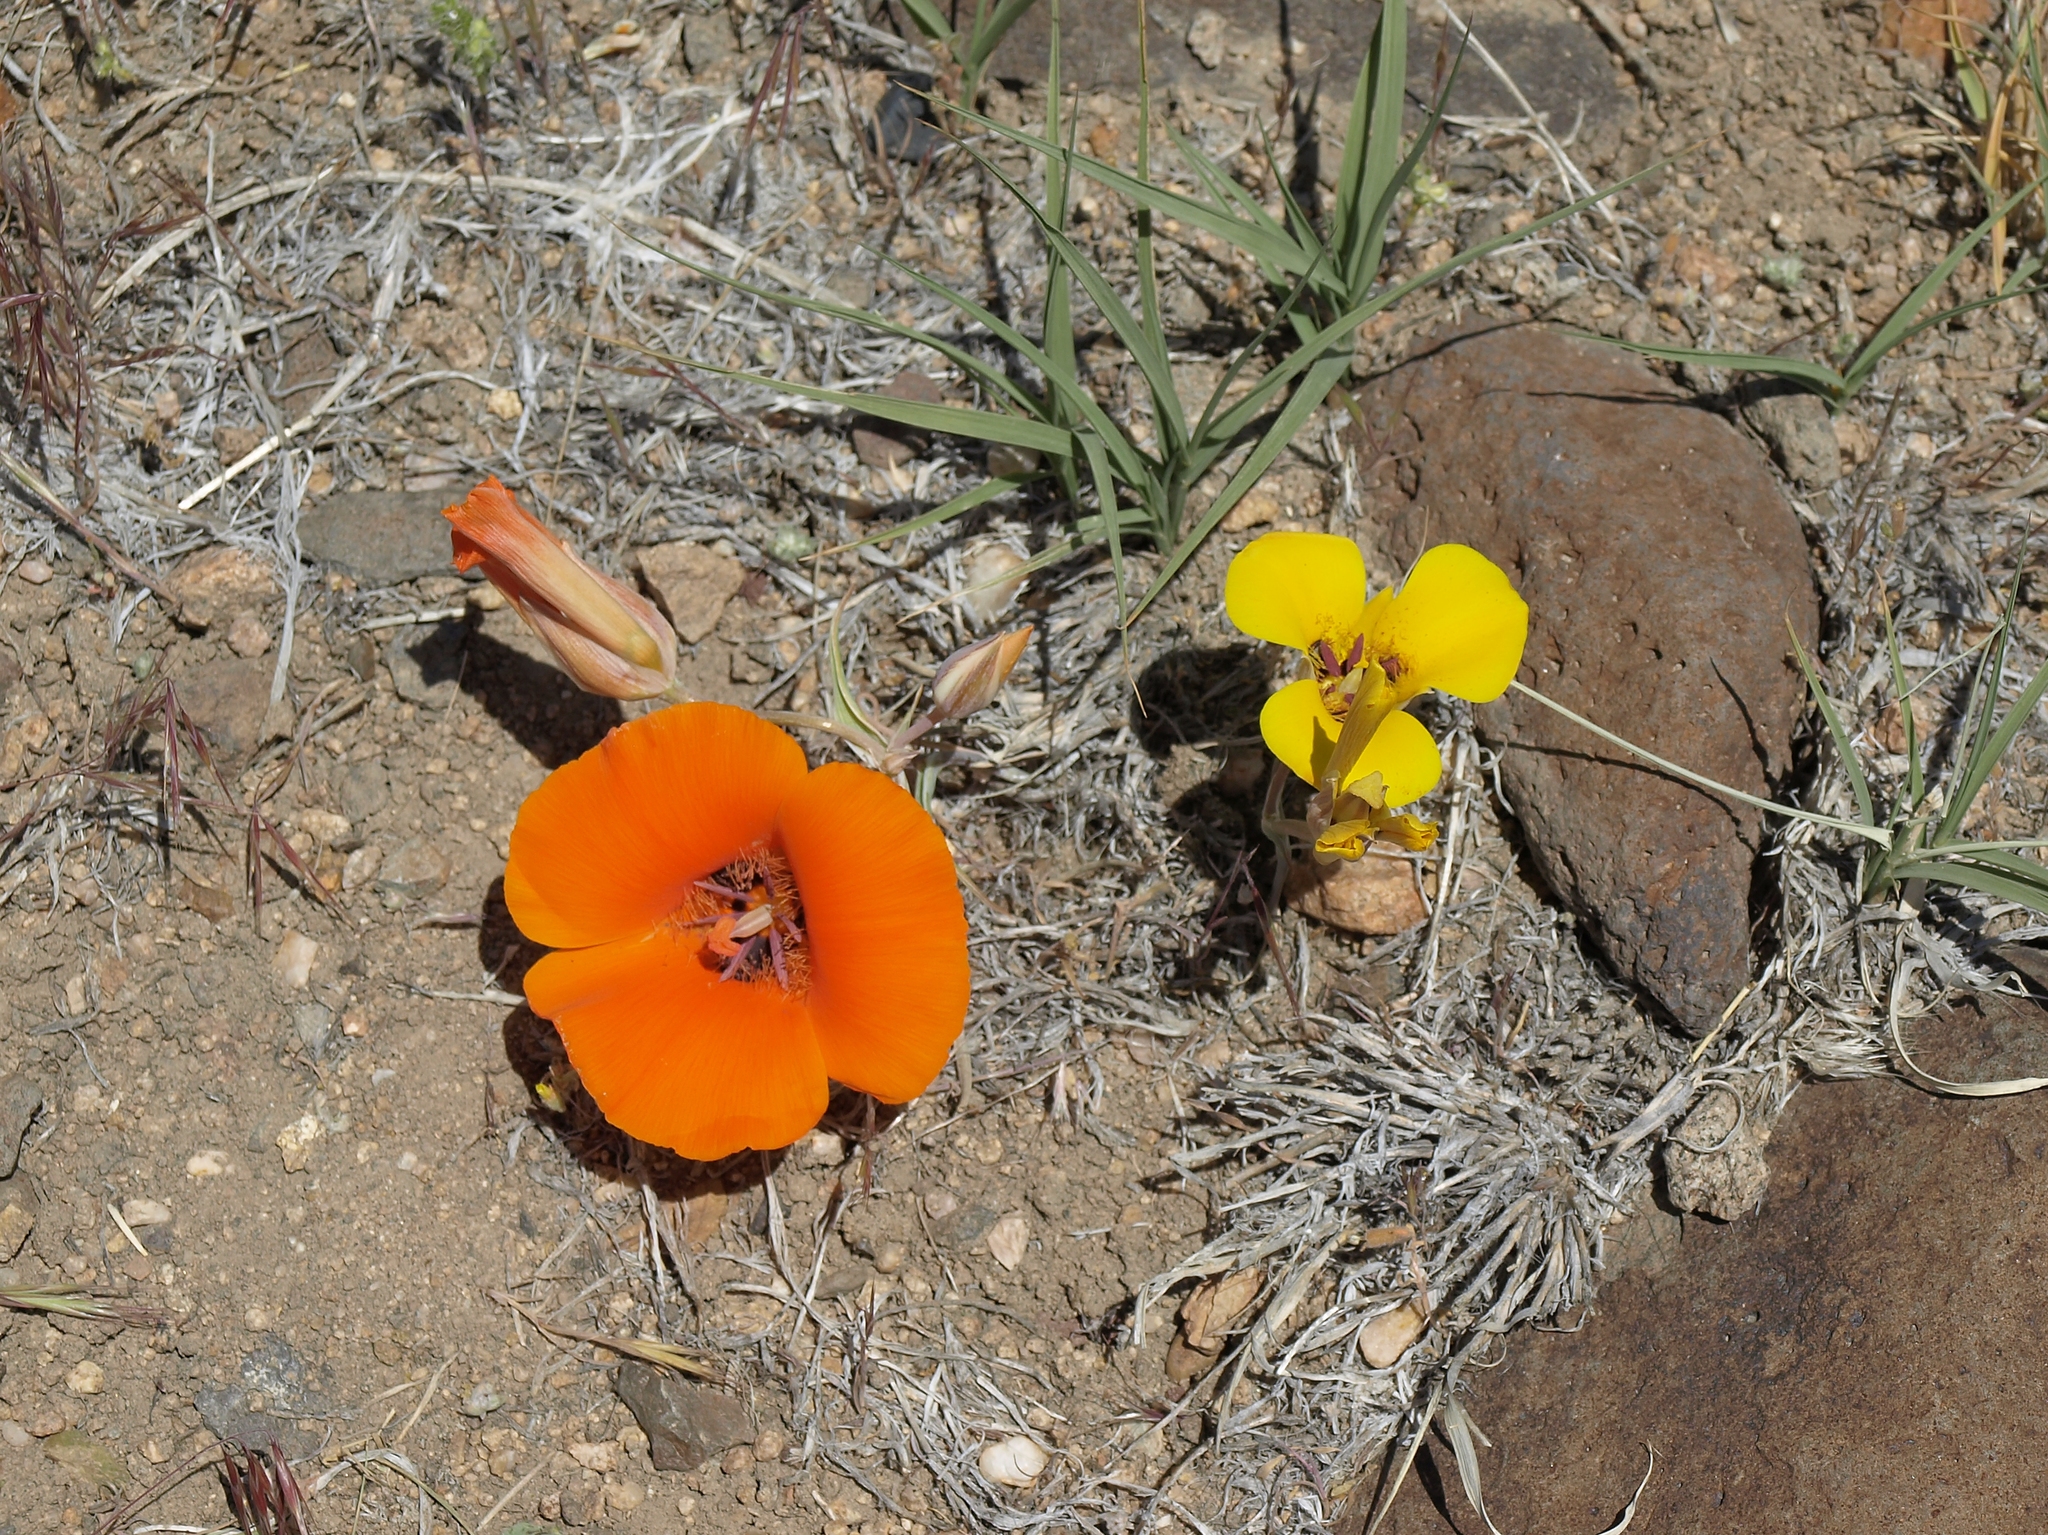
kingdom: Plantae
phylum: Tracheophyta
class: Liliopsida
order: Liliales
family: Liliaceae
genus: Calochortus
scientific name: Calochortus kennedyi
